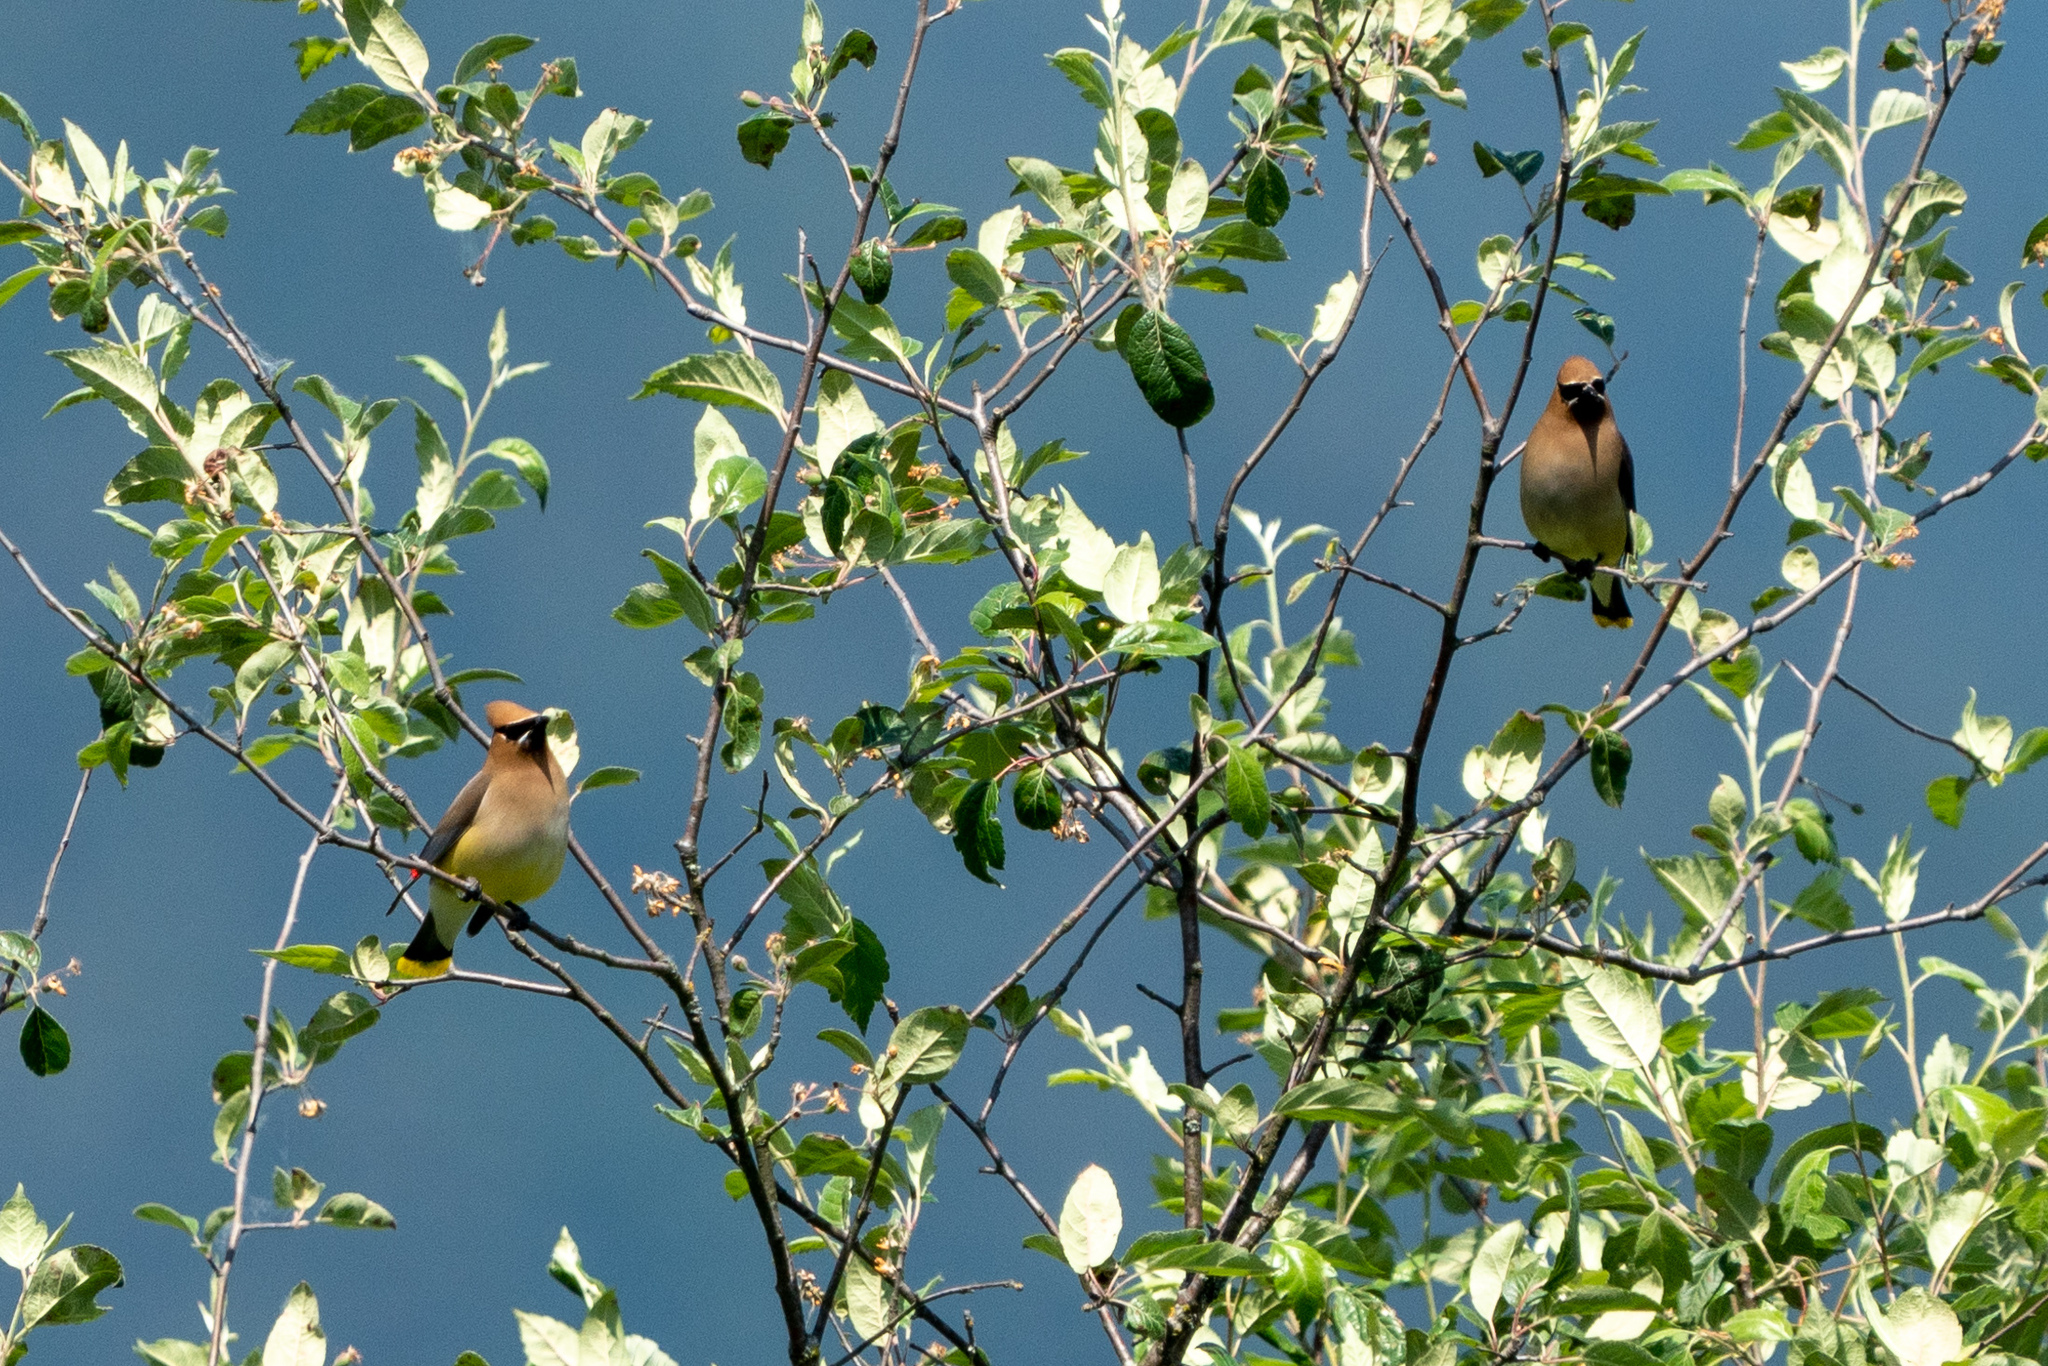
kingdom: Animalia
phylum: Chordata
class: Aves
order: Passeriformes
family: Bombycillidae
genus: Bombycilla
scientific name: Bombycilla cedrorum
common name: Cedar waxwing
